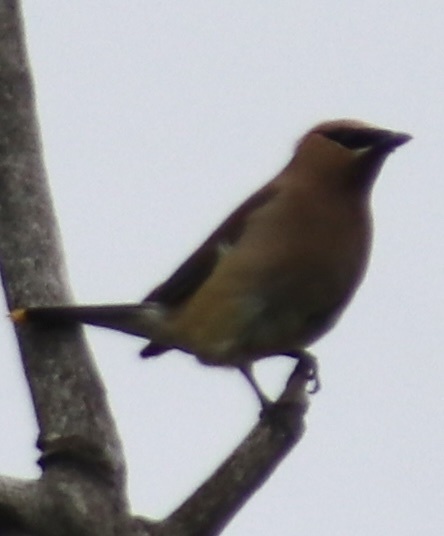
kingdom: Animalia
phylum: Chordata
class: Aves
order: Passeriformes
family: Bombycillidae
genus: Bombycilla
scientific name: Bombycilla cedrorum
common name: Cedar waxwing
